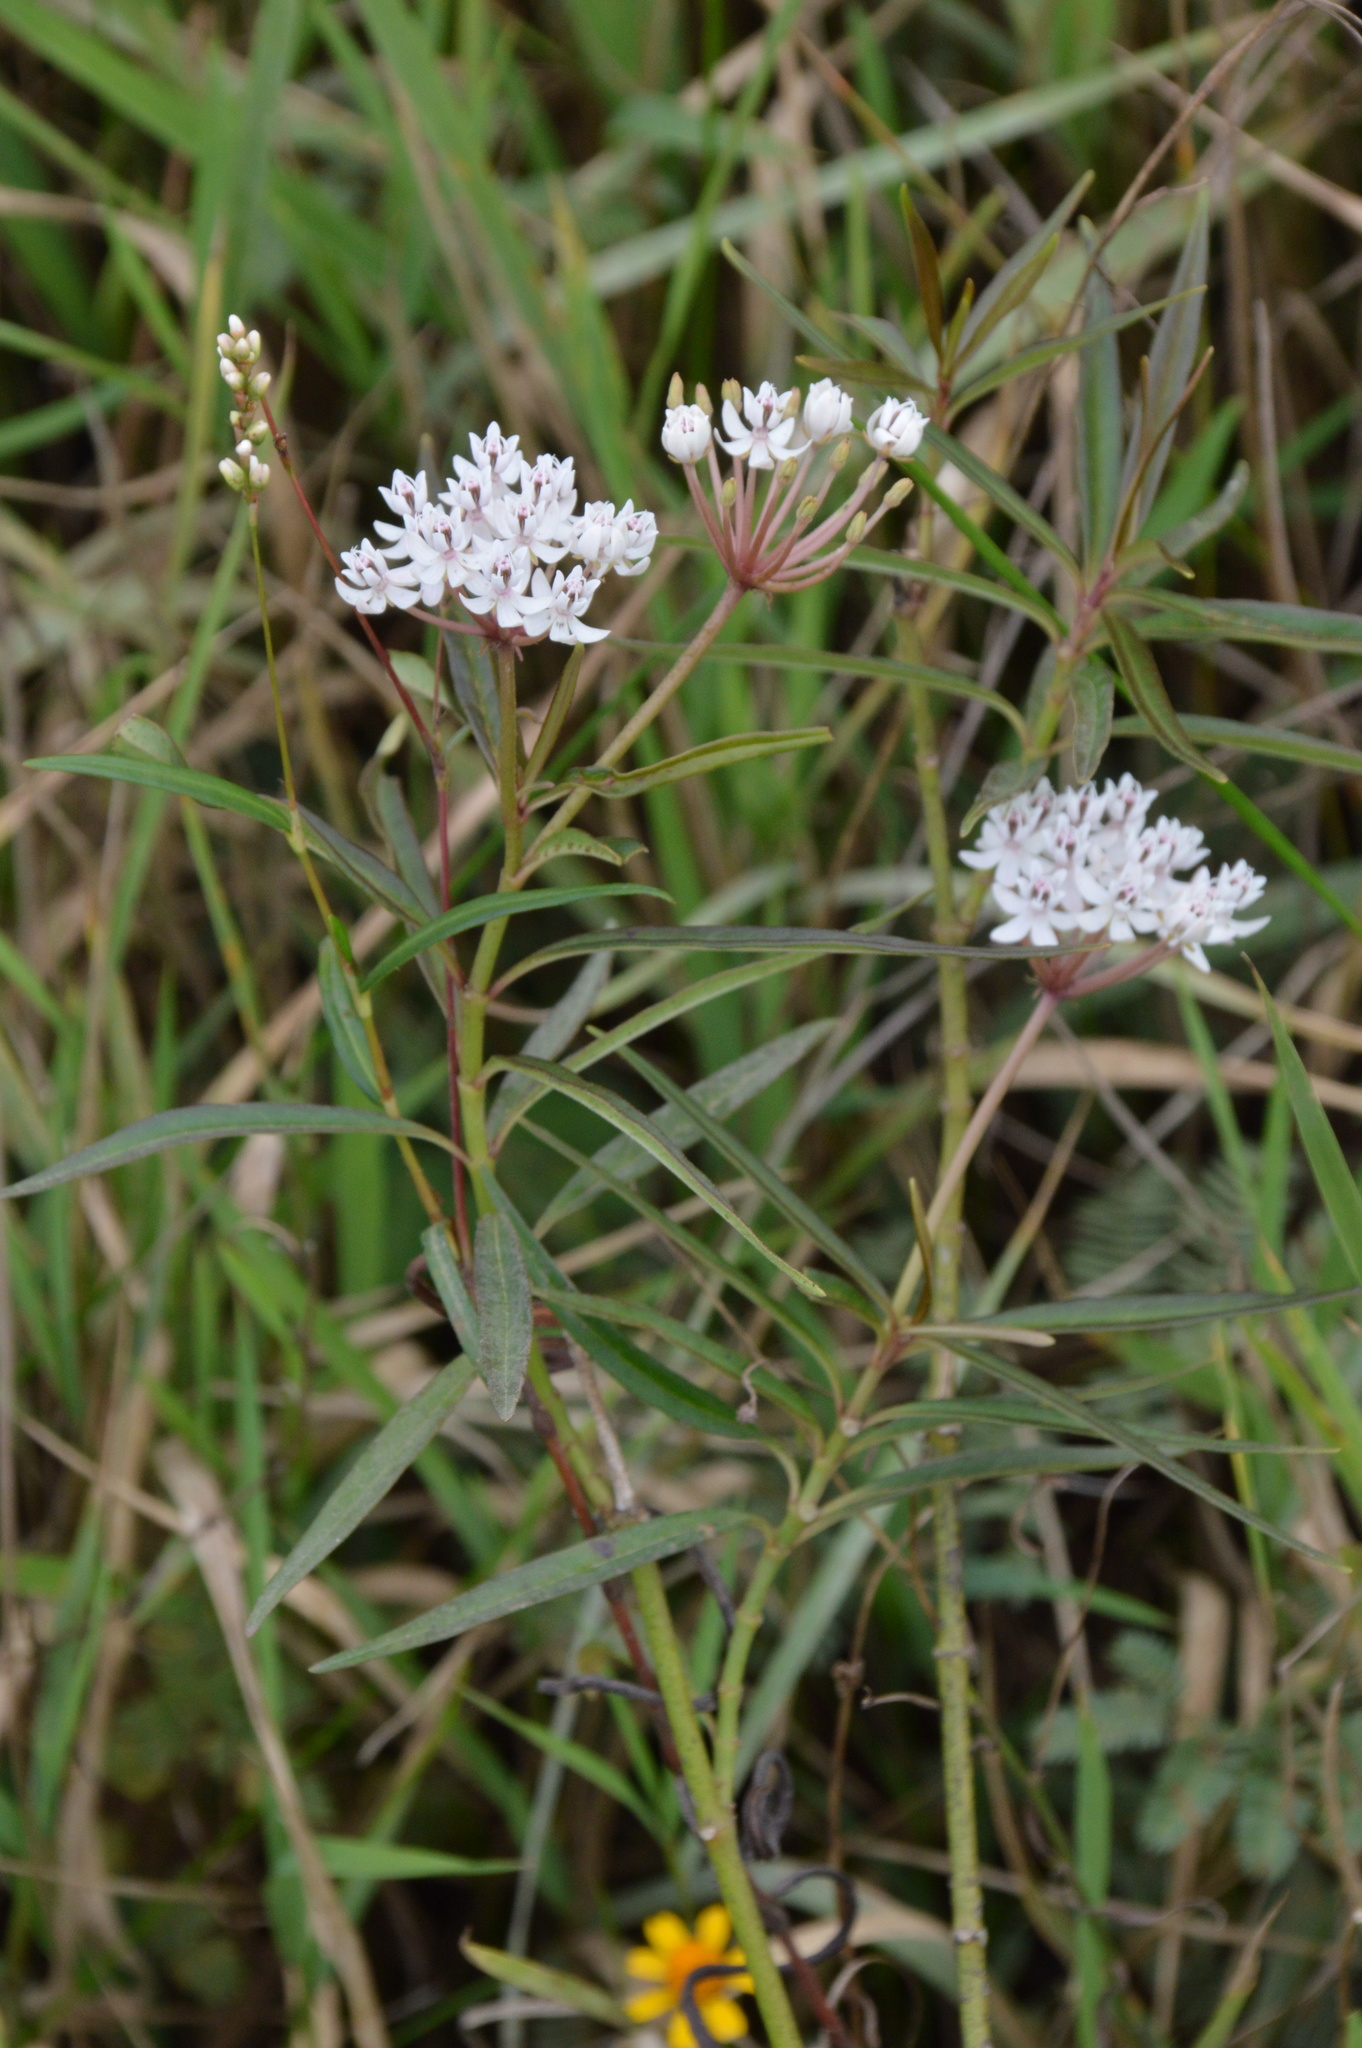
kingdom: Plantae
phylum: Tracheophyta
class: Magnoliopsida
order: Gentianales
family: Apocynaceae
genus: Asclepias
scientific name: Asclepias perennis
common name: Smooth-seed milkweed
